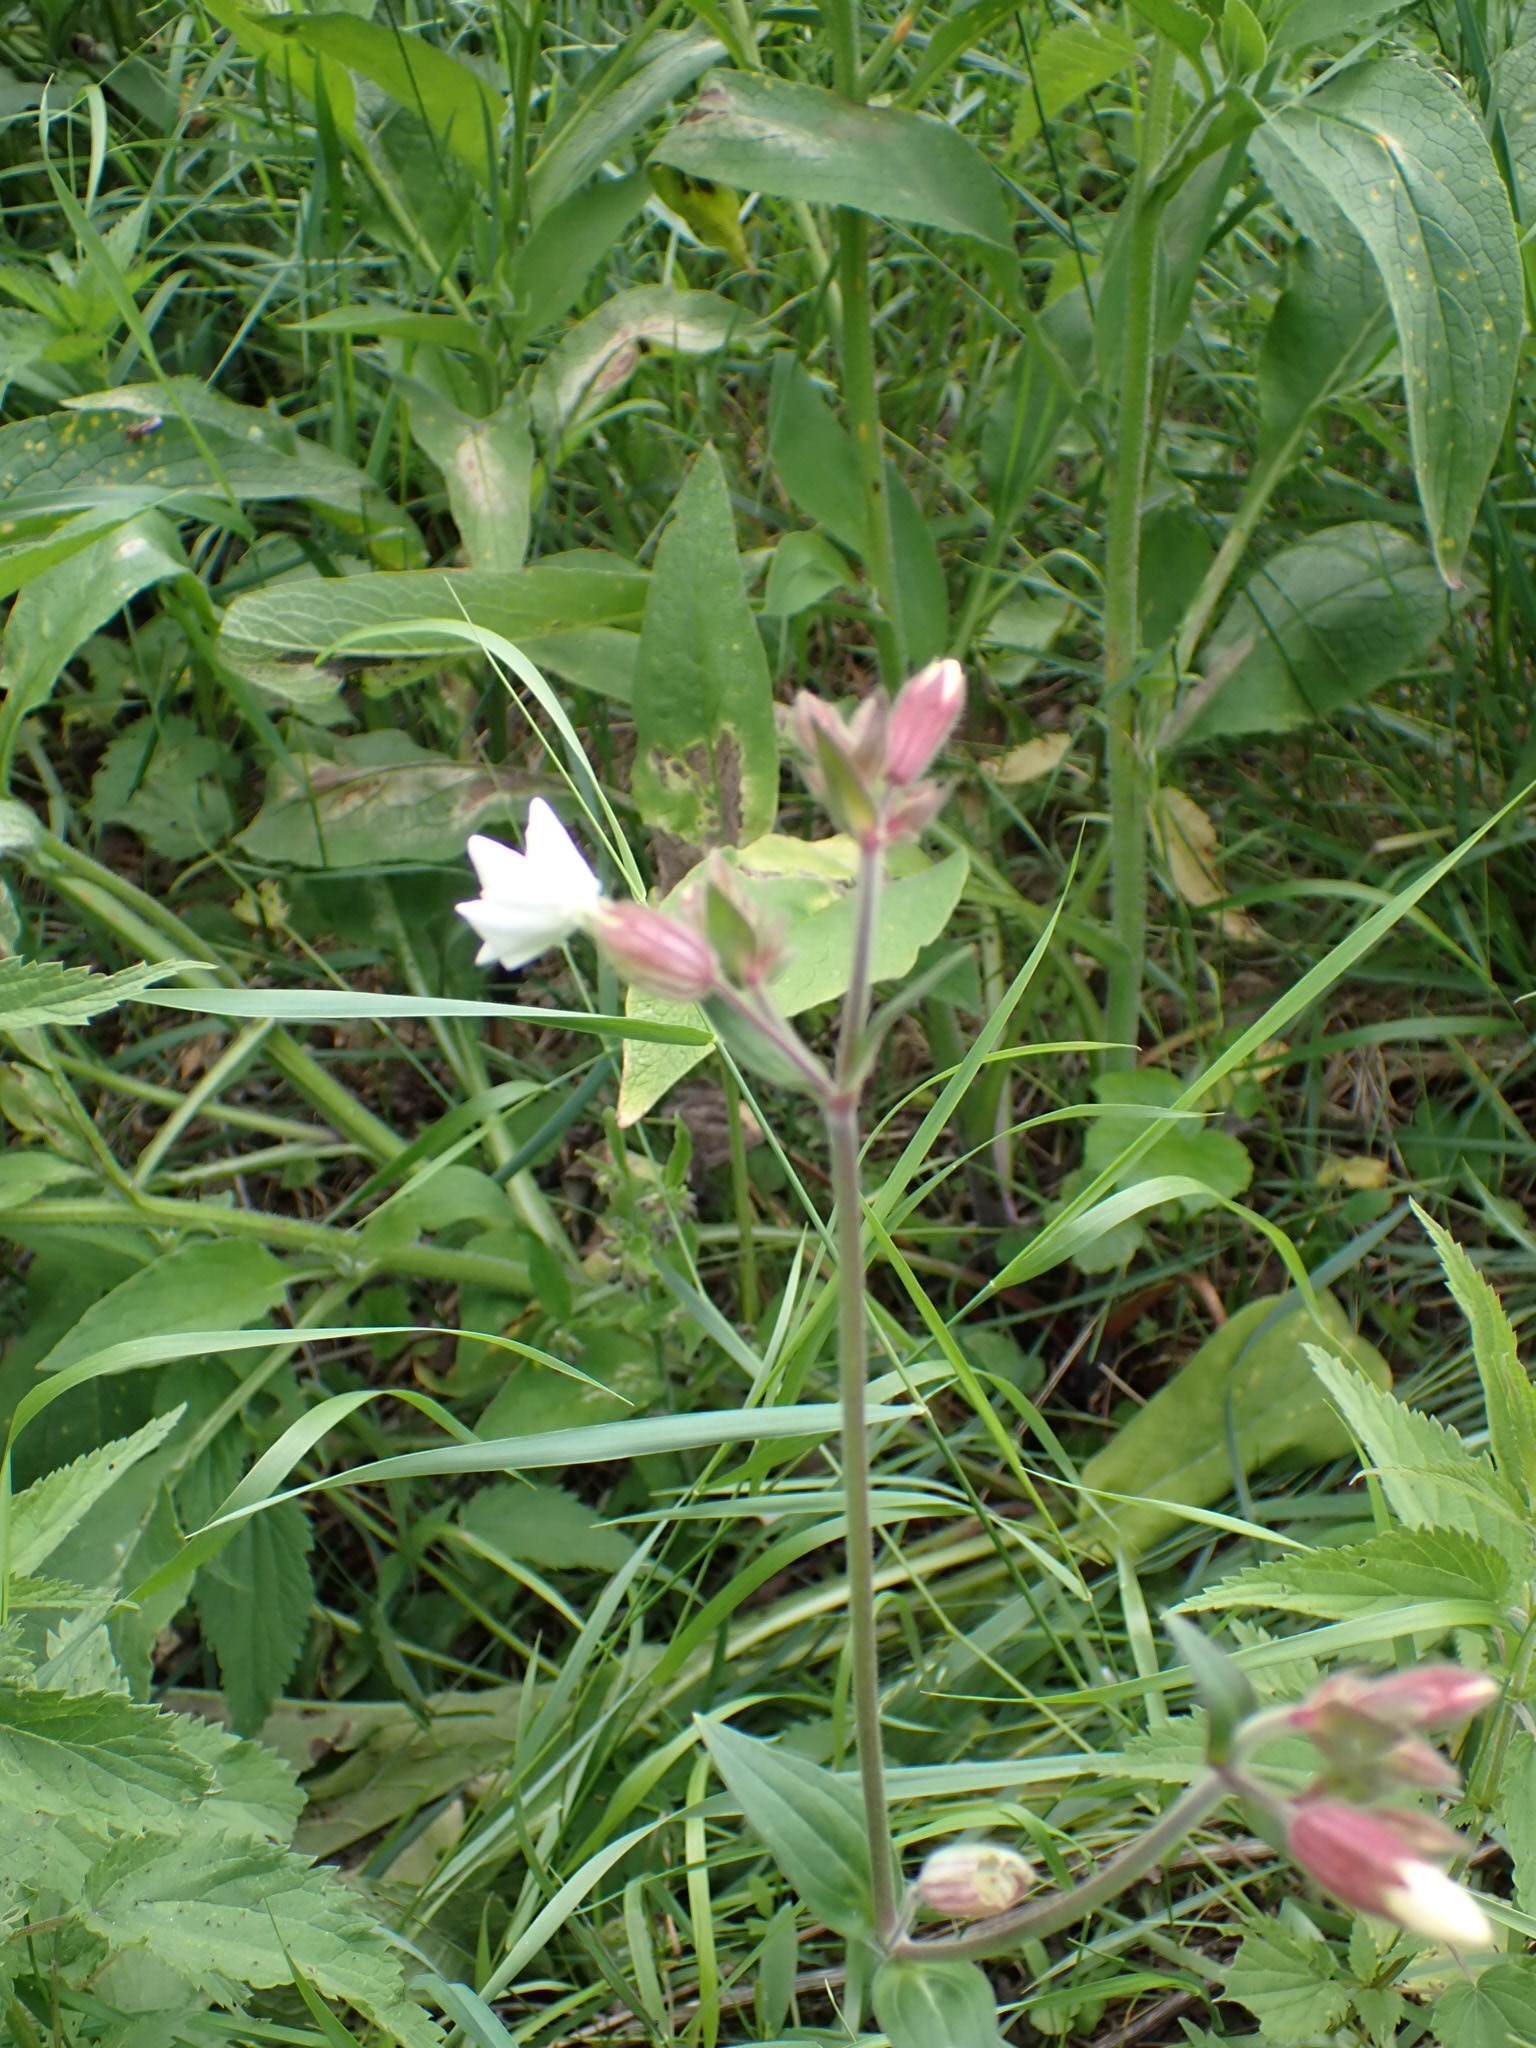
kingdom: Plantae
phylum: Tracheophyta
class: Magnoliopsida
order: Caryophyllales
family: Caryophyllaceae
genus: Silene
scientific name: Silene latifolia
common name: White campion
